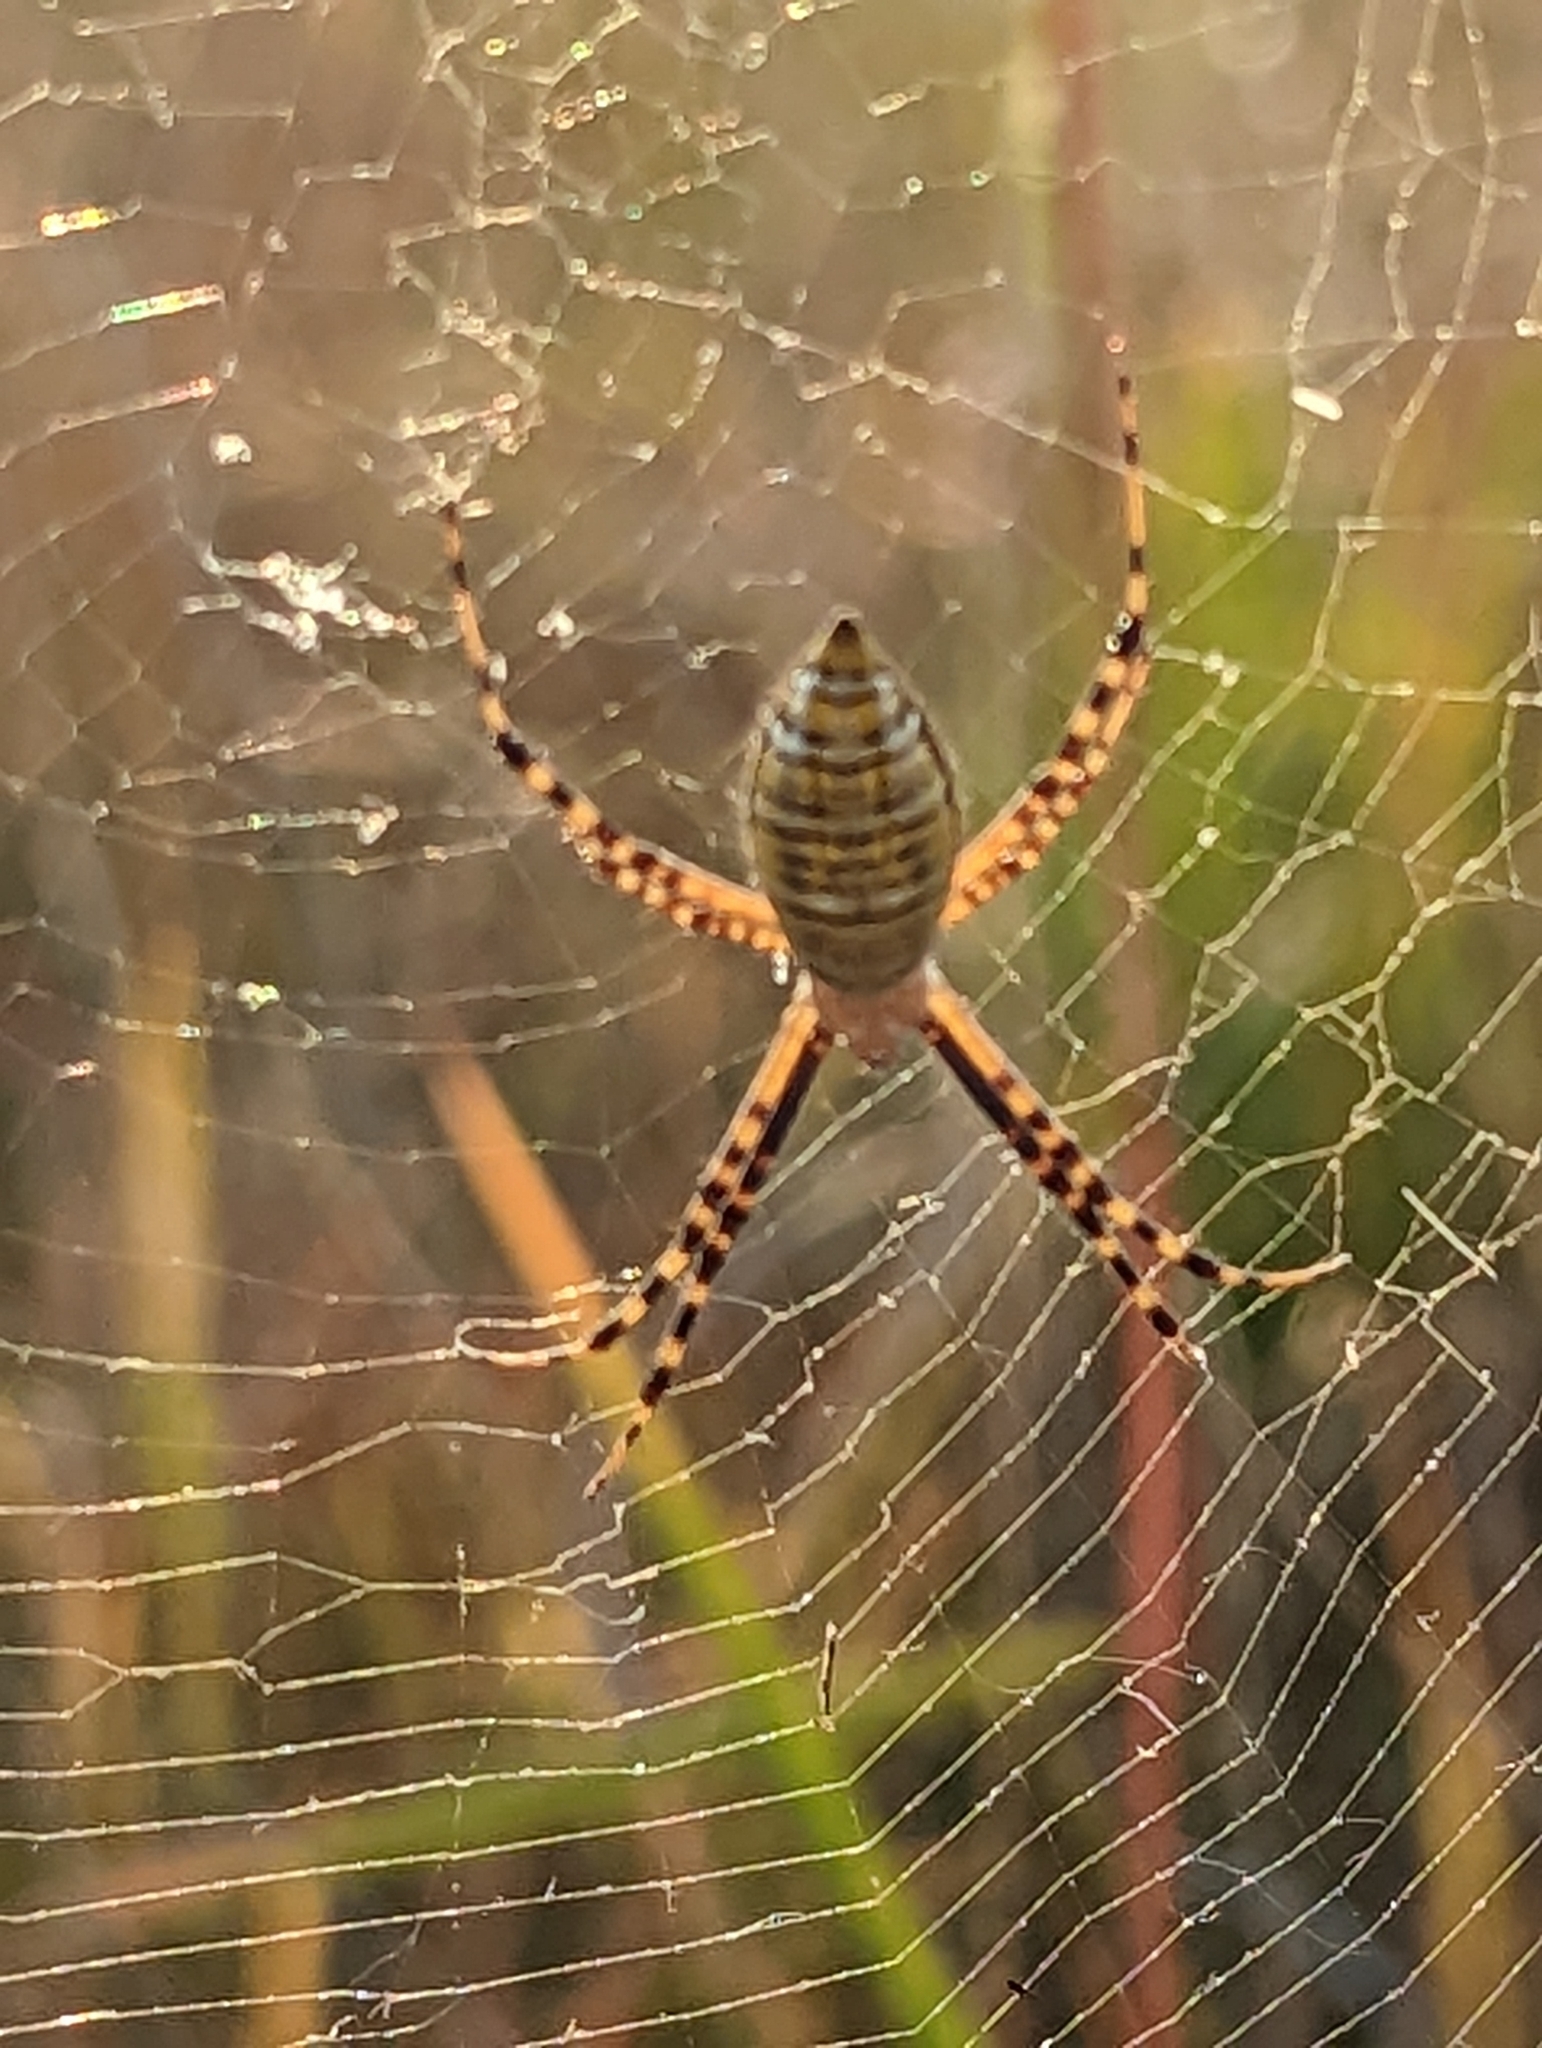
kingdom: Animalia
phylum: Arthropoda
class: Arachnida
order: Araneae
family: Araneidae
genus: Argiope
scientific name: Argiope trifasciata
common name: Banded garden spider
